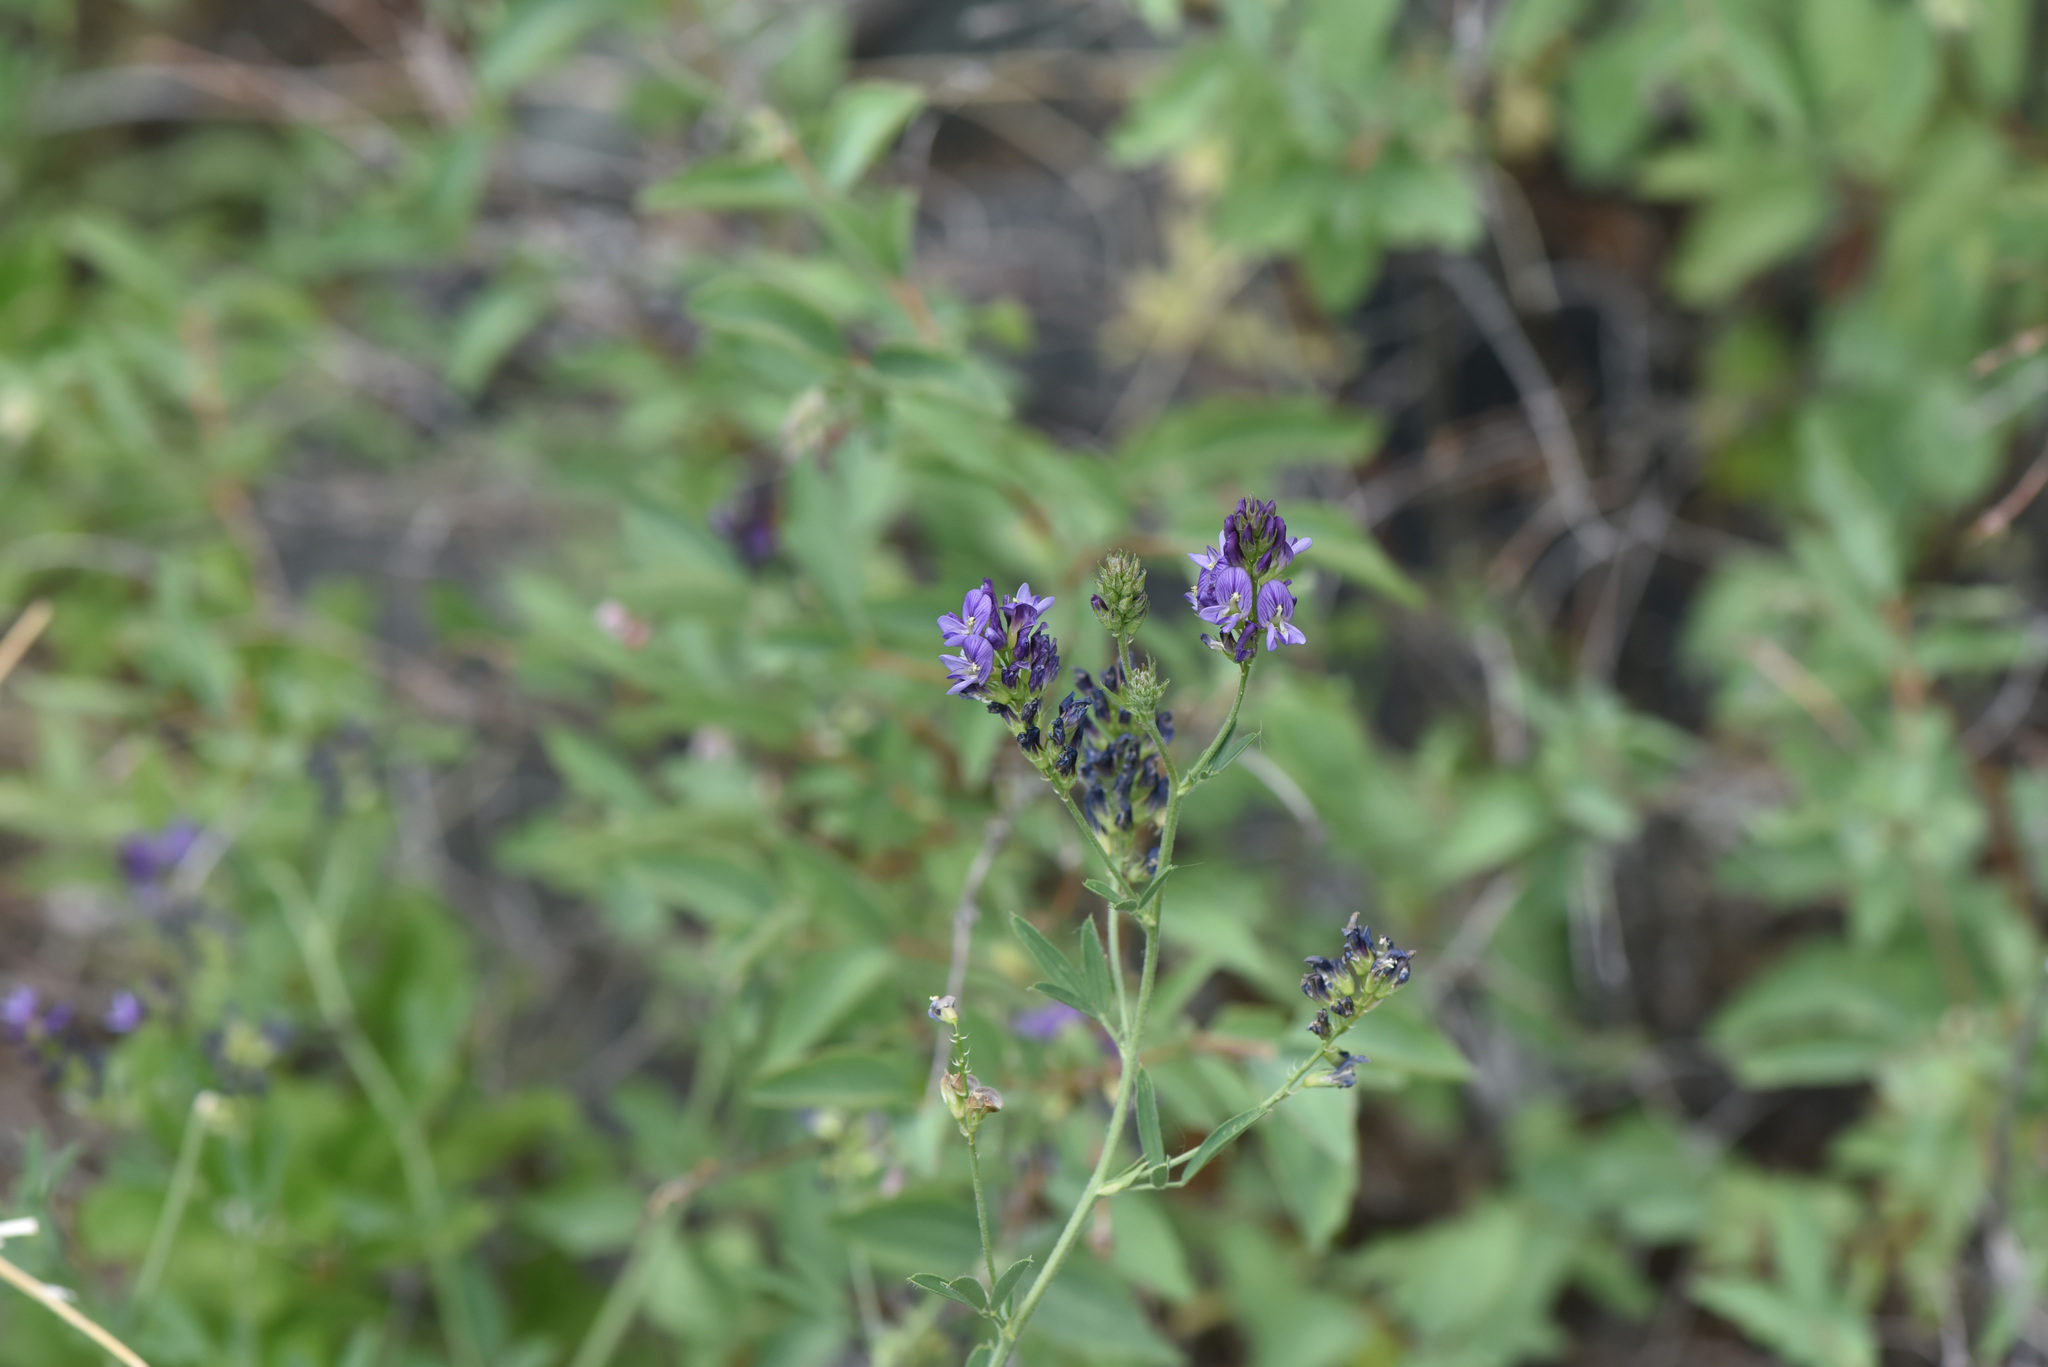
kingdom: Plantae
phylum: Tracheophyta
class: Magnoliopsida
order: Fabales
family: Fabaceae
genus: Medicago
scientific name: Medicago sativa
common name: Alfalfa
